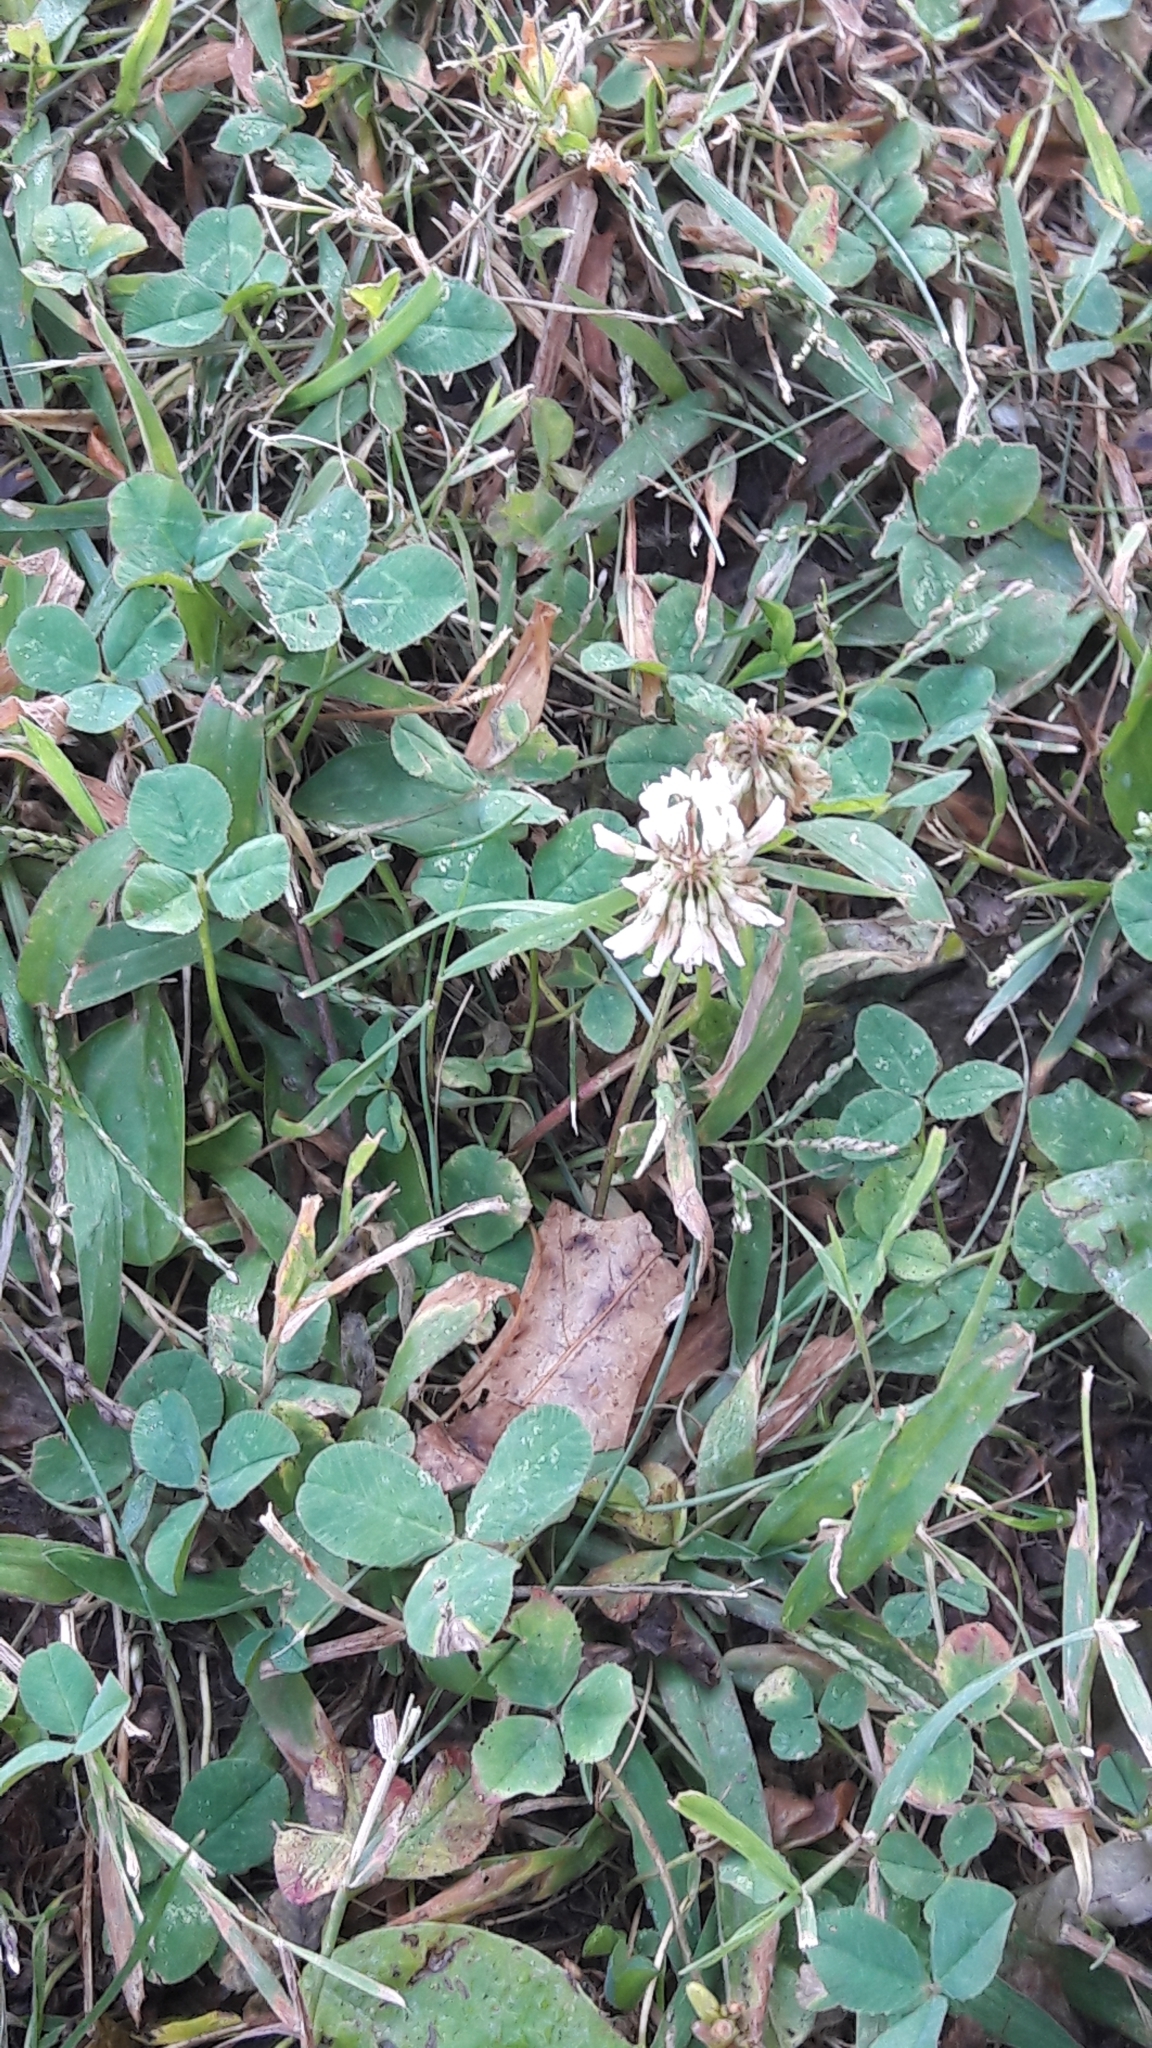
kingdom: Plantae
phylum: Tracheophyta
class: Magnoliopsida
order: Fabales
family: Fabaceae
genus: Trifolium
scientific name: Trifolium repens
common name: White clover
